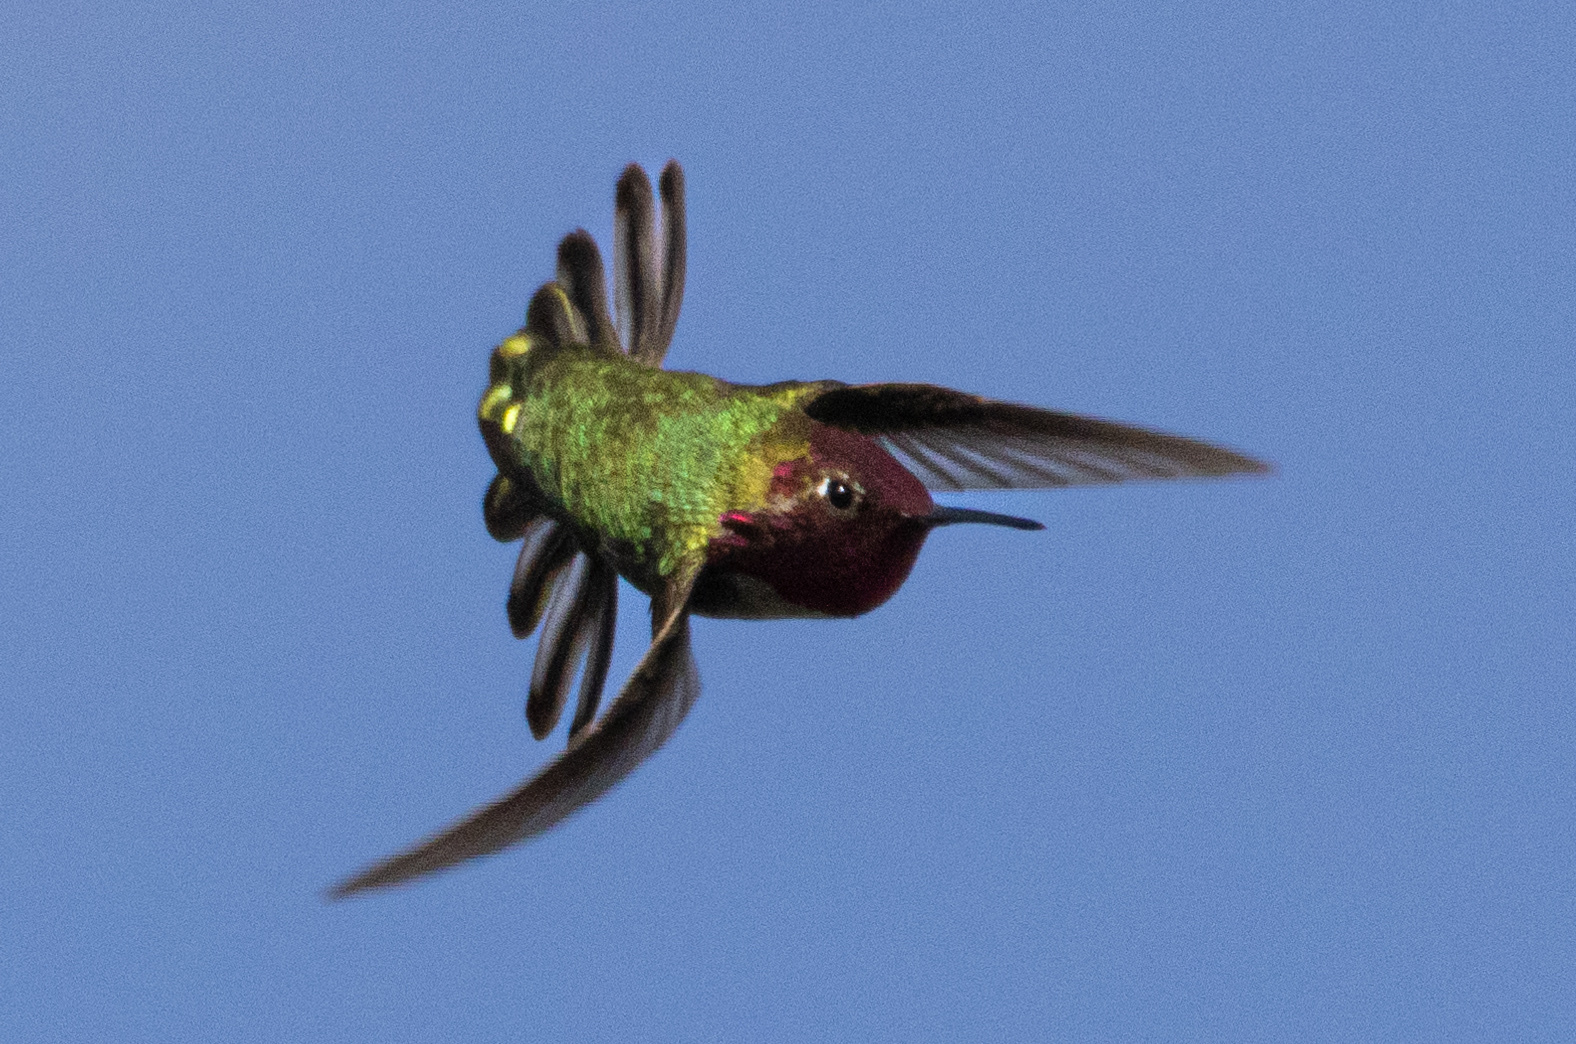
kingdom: Animalia
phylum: Chordata
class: Aves
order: Apodiformes
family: Trochilidae
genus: Calypte
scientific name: Calypte anna
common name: Anna's hummingbird
